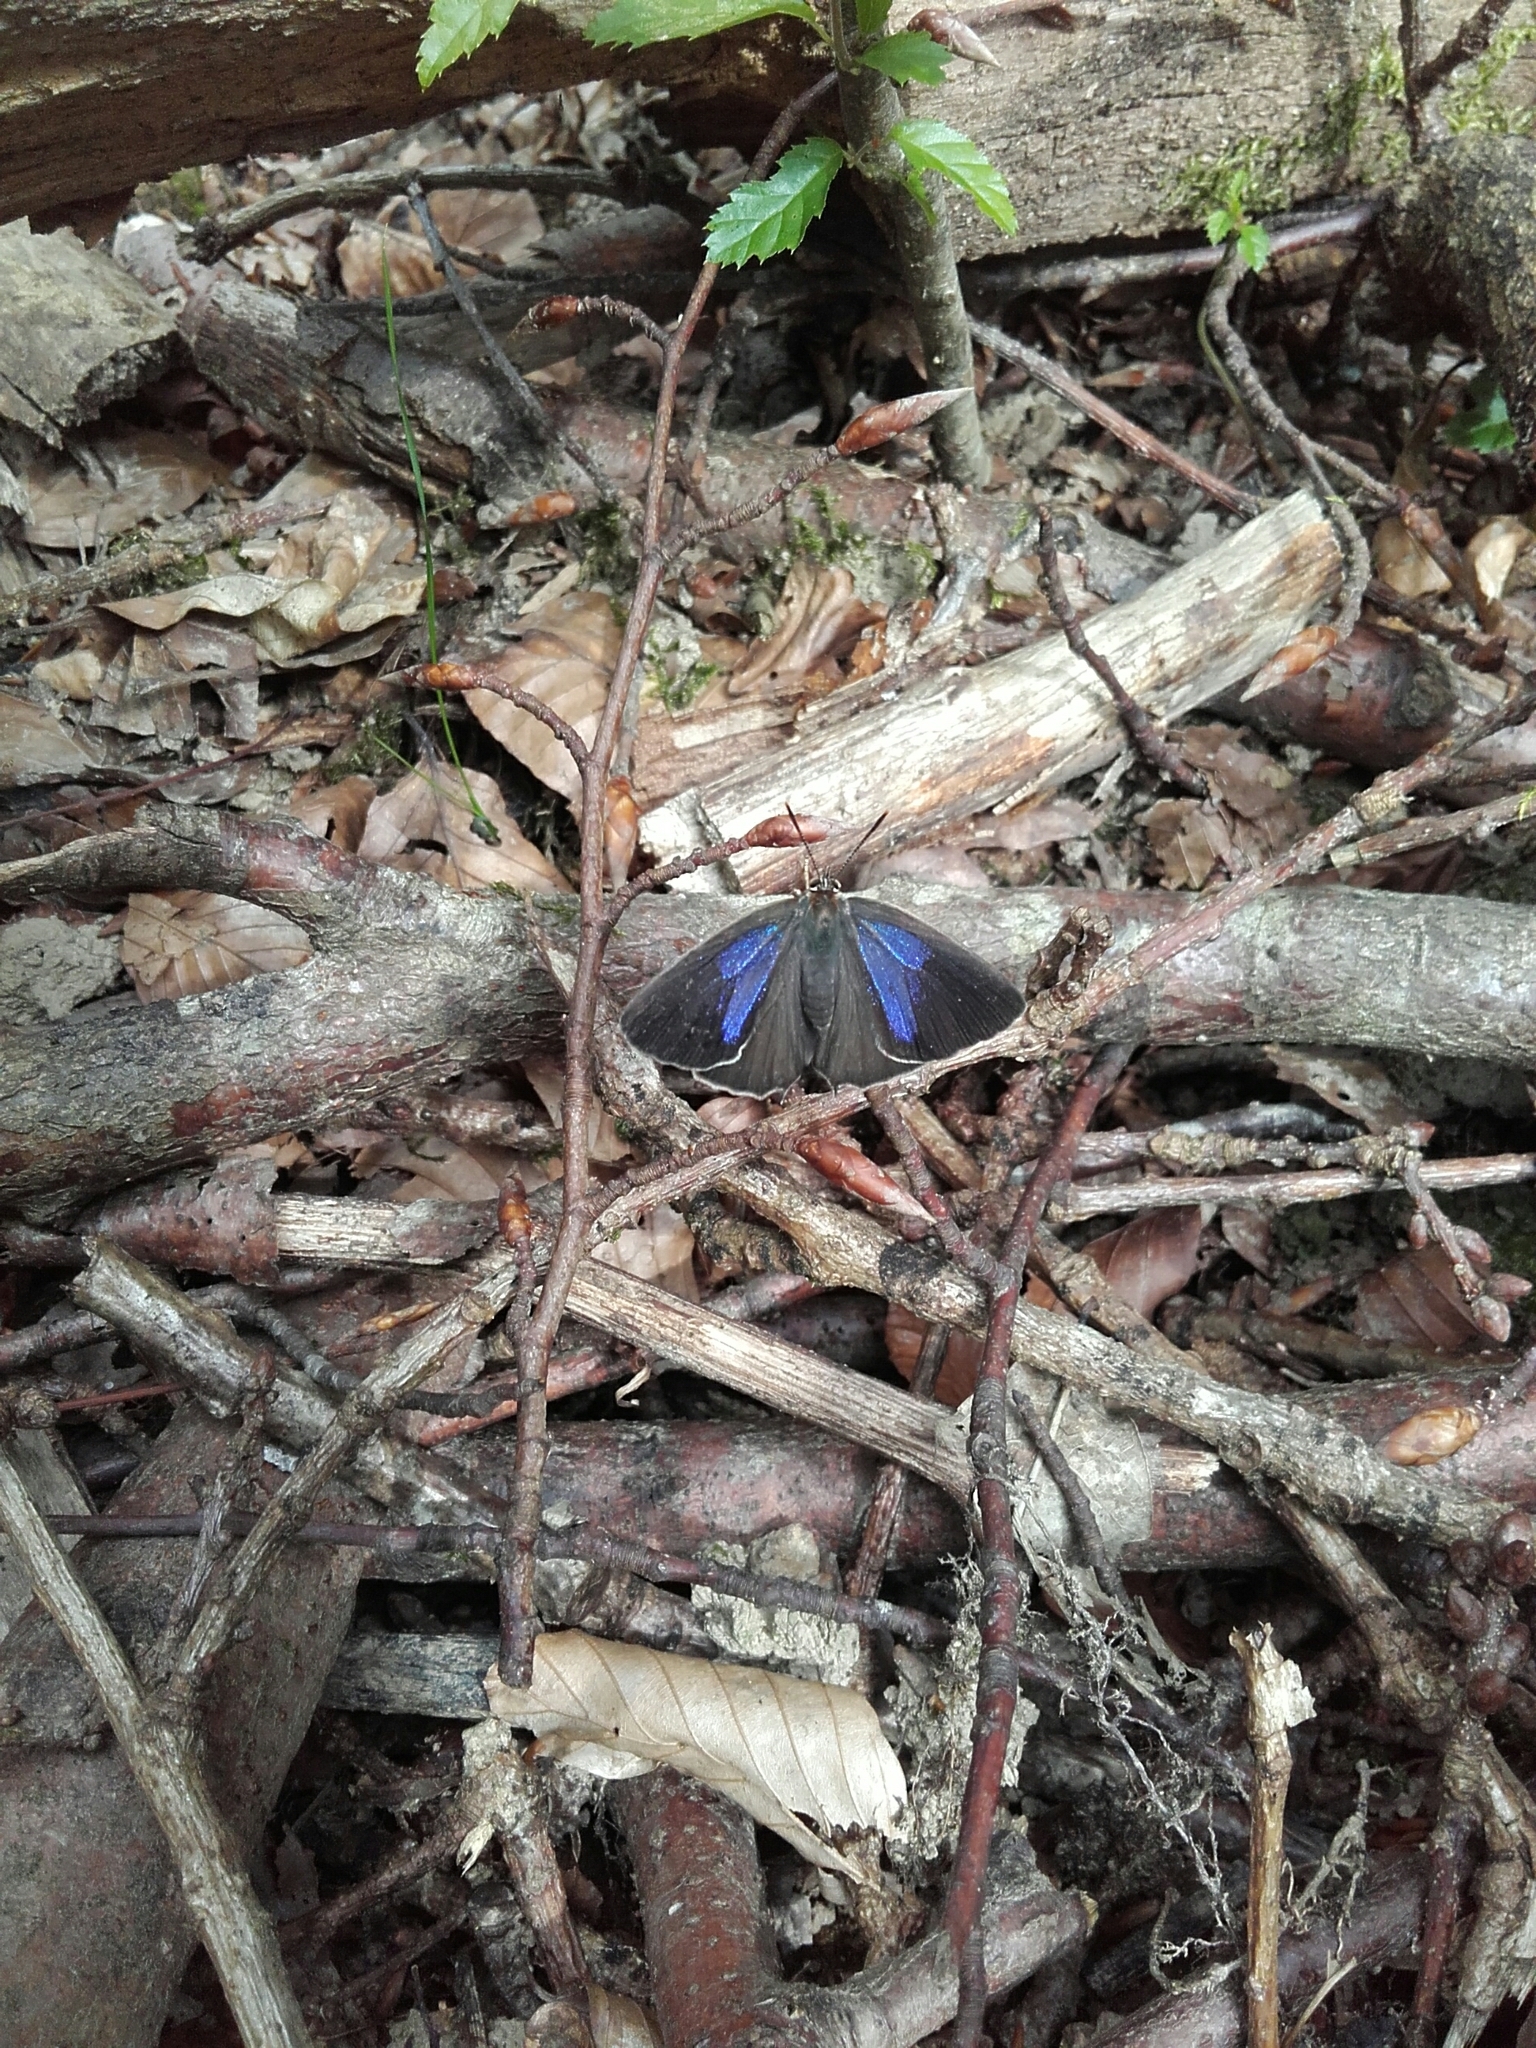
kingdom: Animalia
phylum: Arthropoda
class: Insecta
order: Lepidoptera
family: Lycaenidae
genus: Quercusia
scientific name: Quercusia quercus
